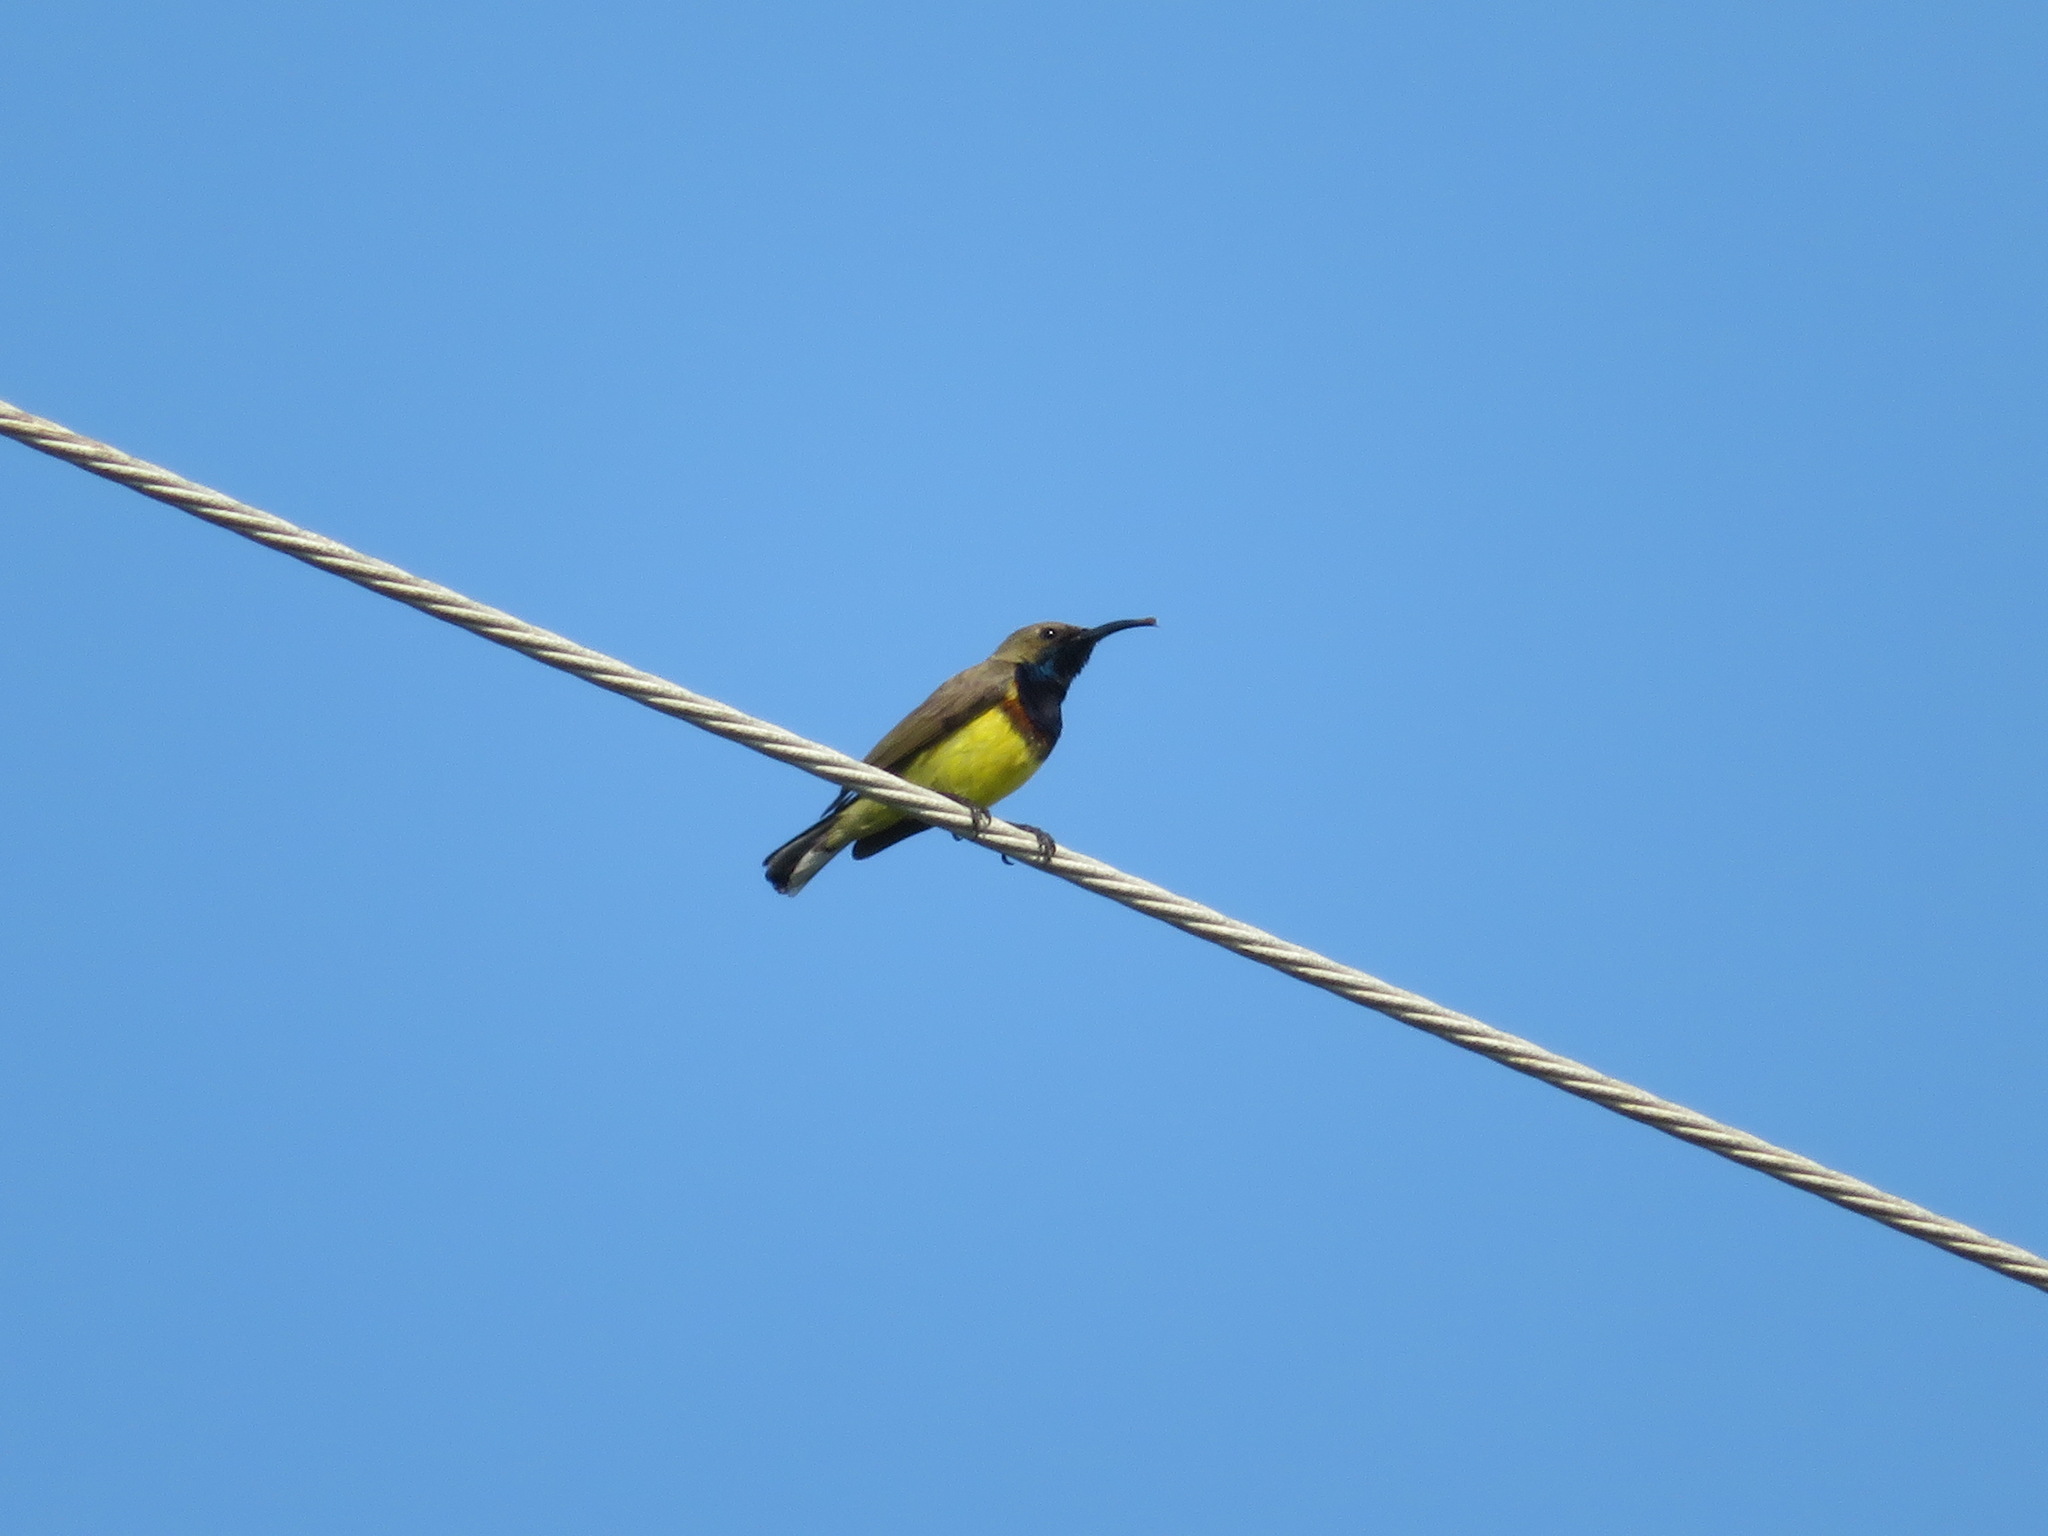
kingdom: Animalia
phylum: Chordata
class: Aves
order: Passeriformes
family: Nectariniidae
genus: Cinnyris
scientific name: Cinnyris
